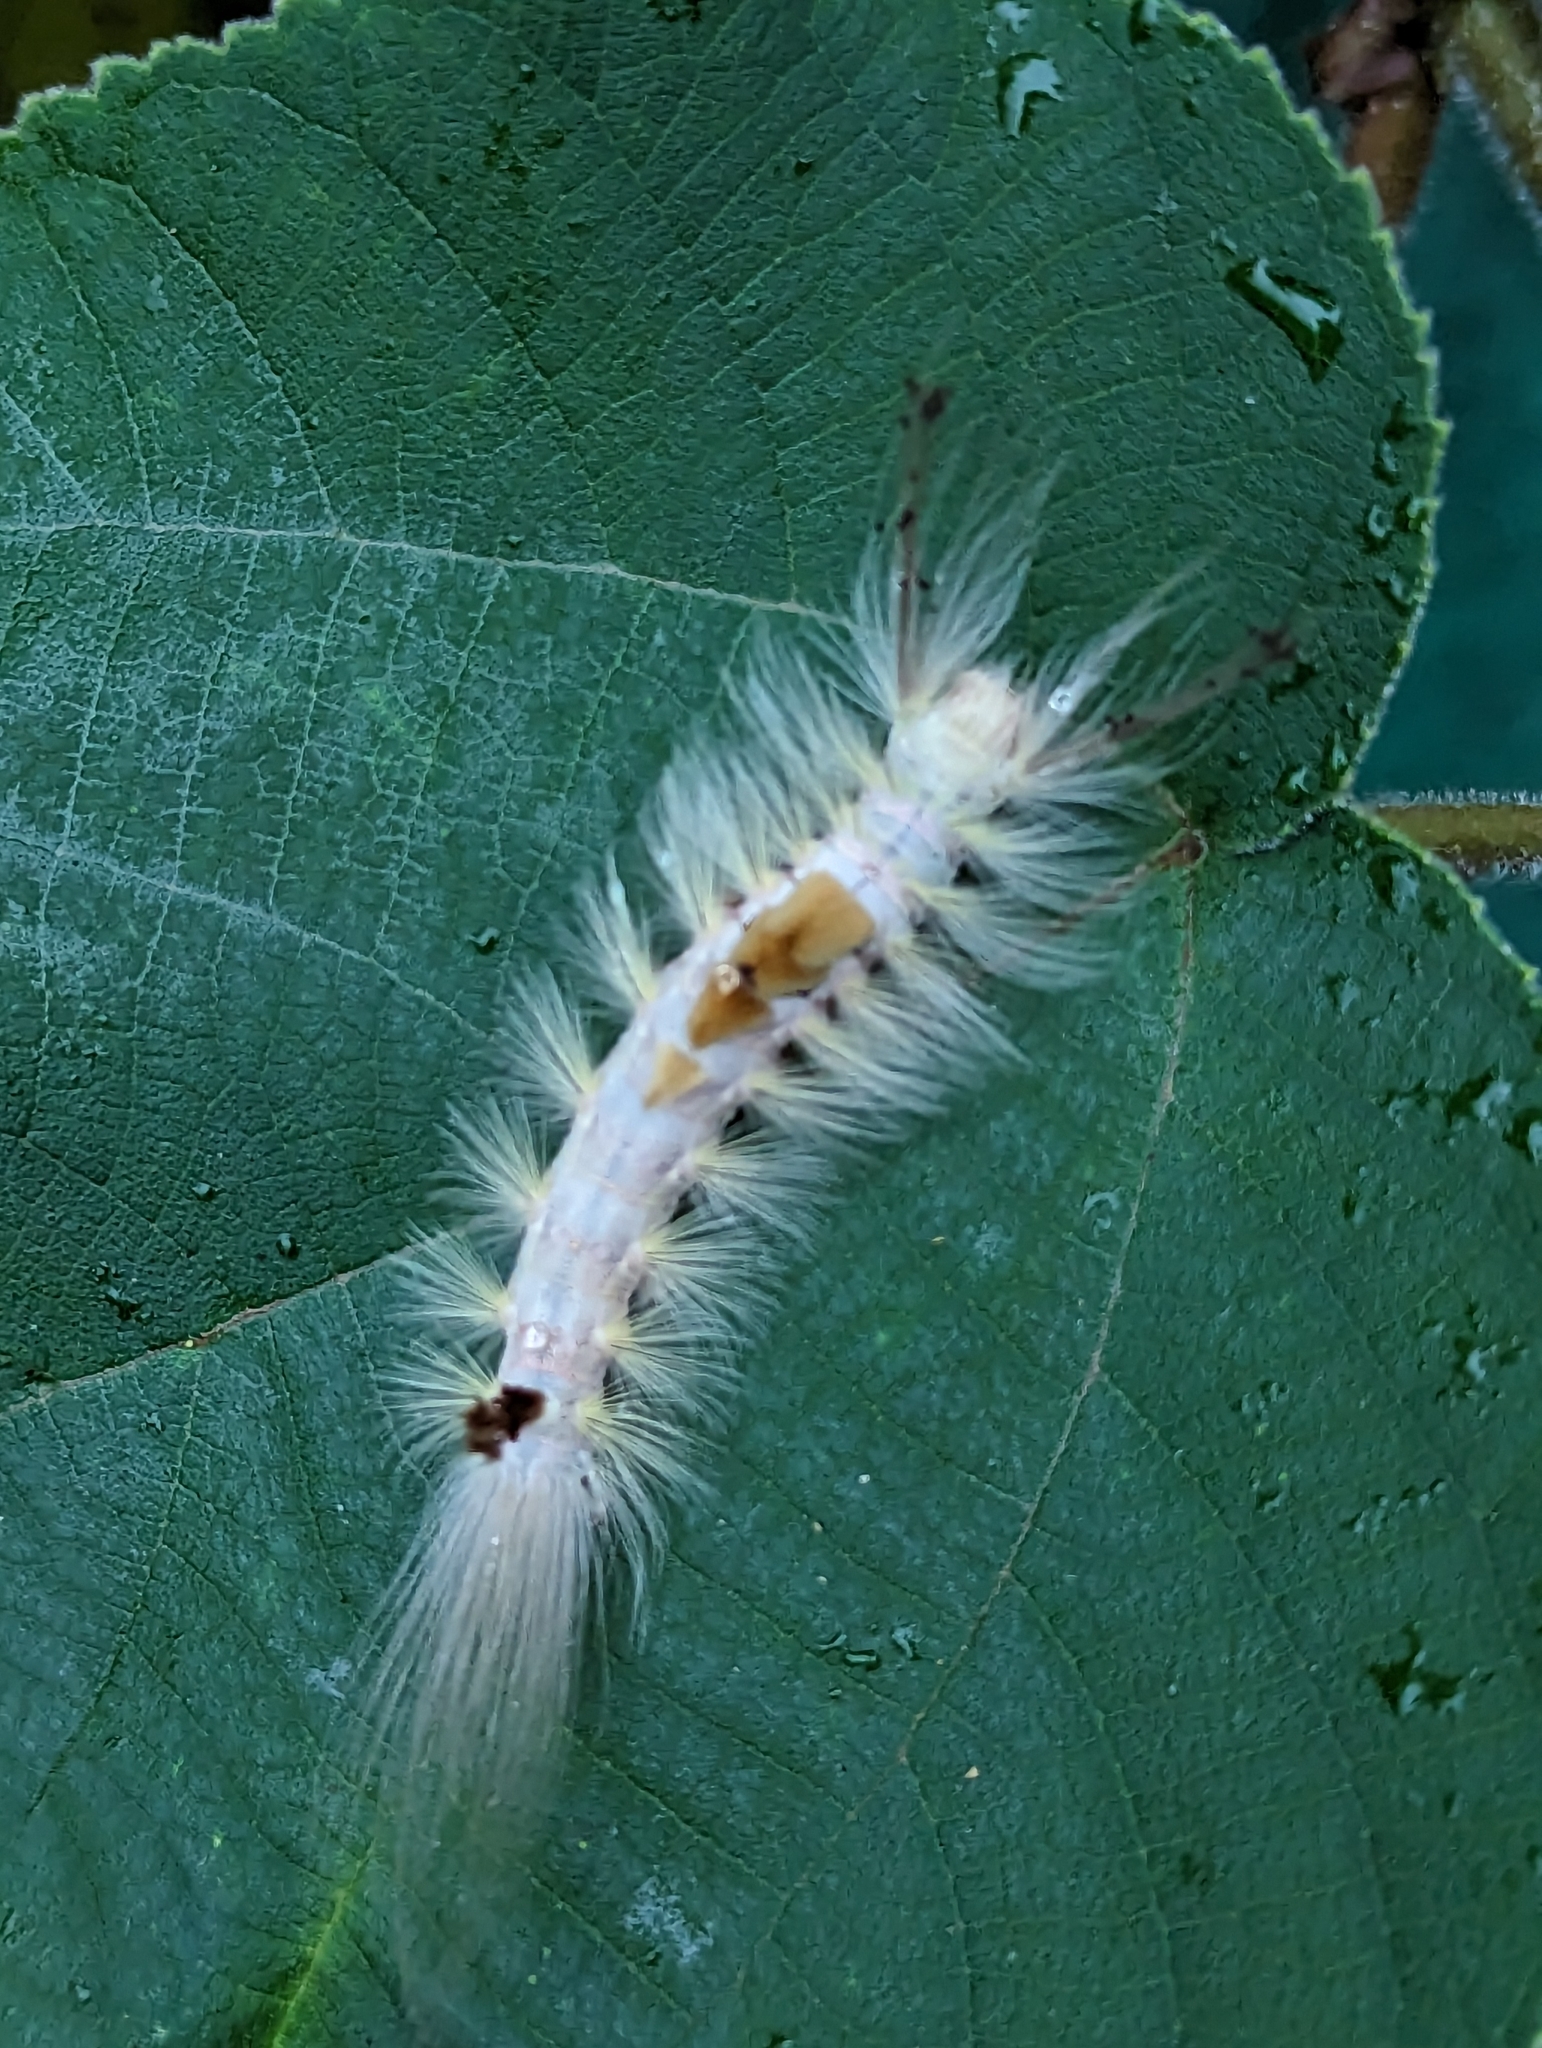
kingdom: Animalia
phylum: Arthropoda
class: Insecta
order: Lepidoptera
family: Erebidae
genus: Olene
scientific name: Olene dudgeoni
